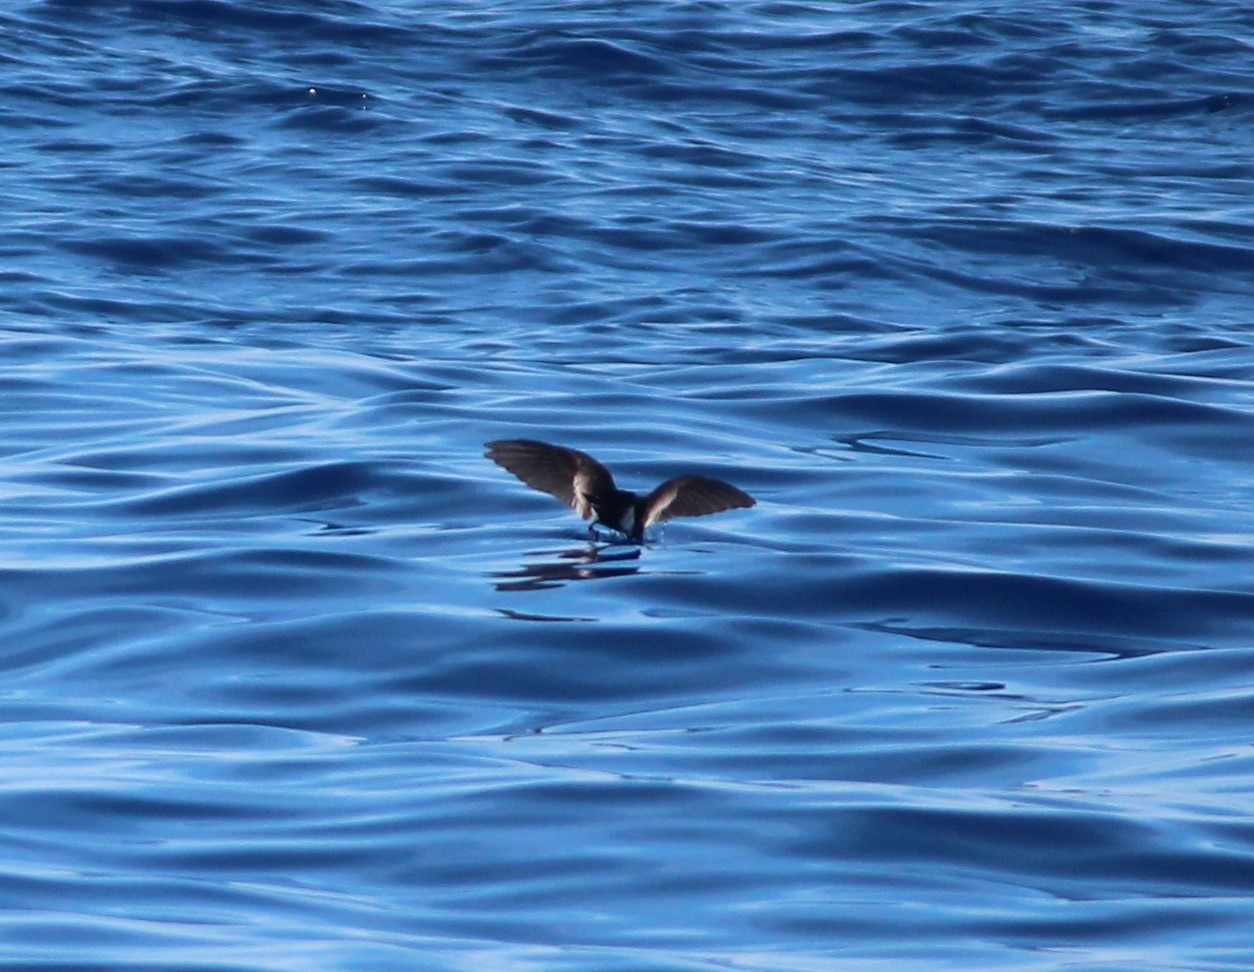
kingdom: Animalia
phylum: Chordata
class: Aves
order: Procellariiformes
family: Hydrobatidae
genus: Oceanites
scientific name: Oceanites oceanicus
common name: Wilson's storm petrel
